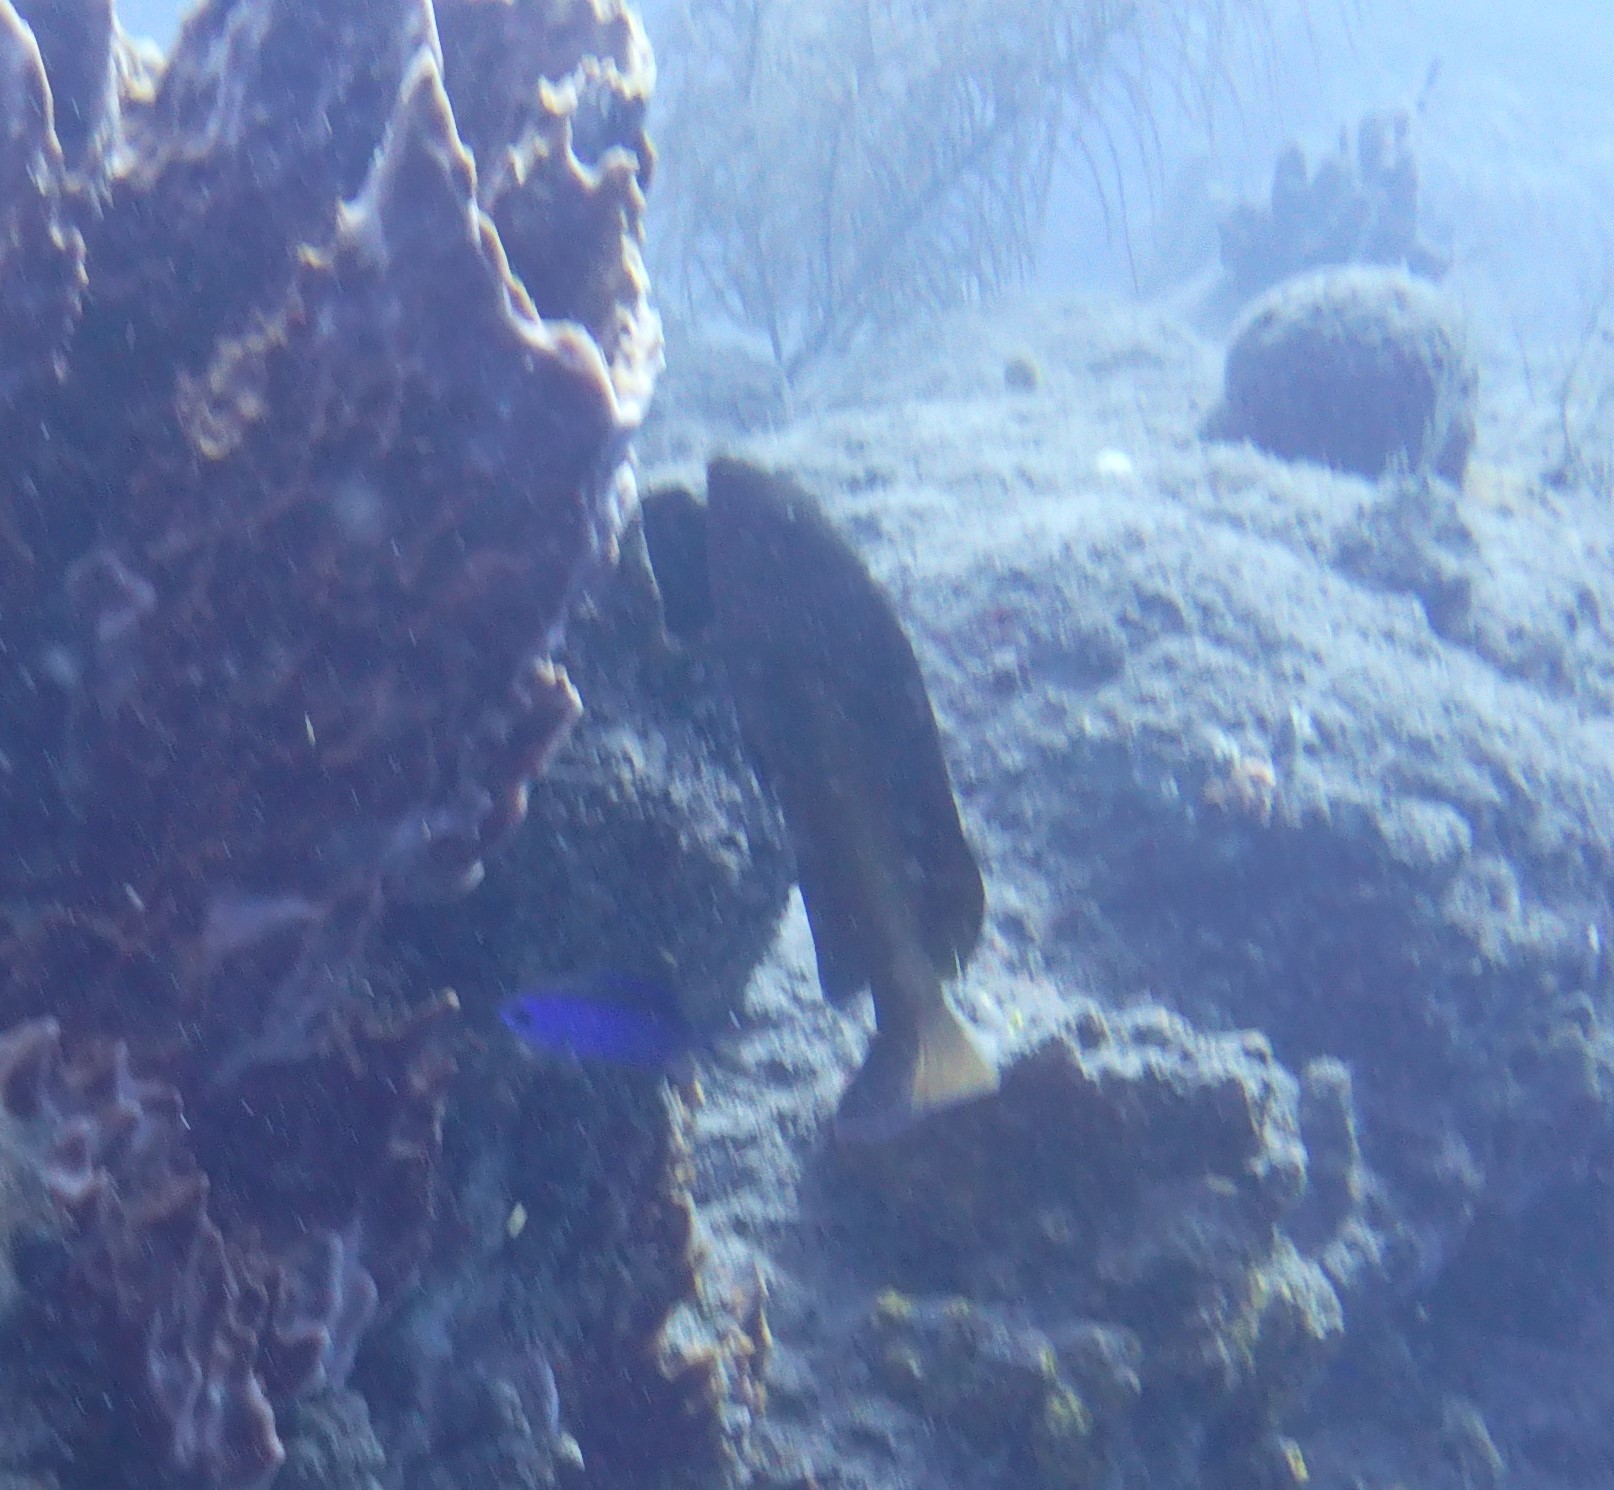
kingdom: Animalia
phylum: Chordata
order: Perciformes
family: Serranidae
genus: Cephalopholis
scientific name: Cephalopholis fulva
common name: Butterfish
